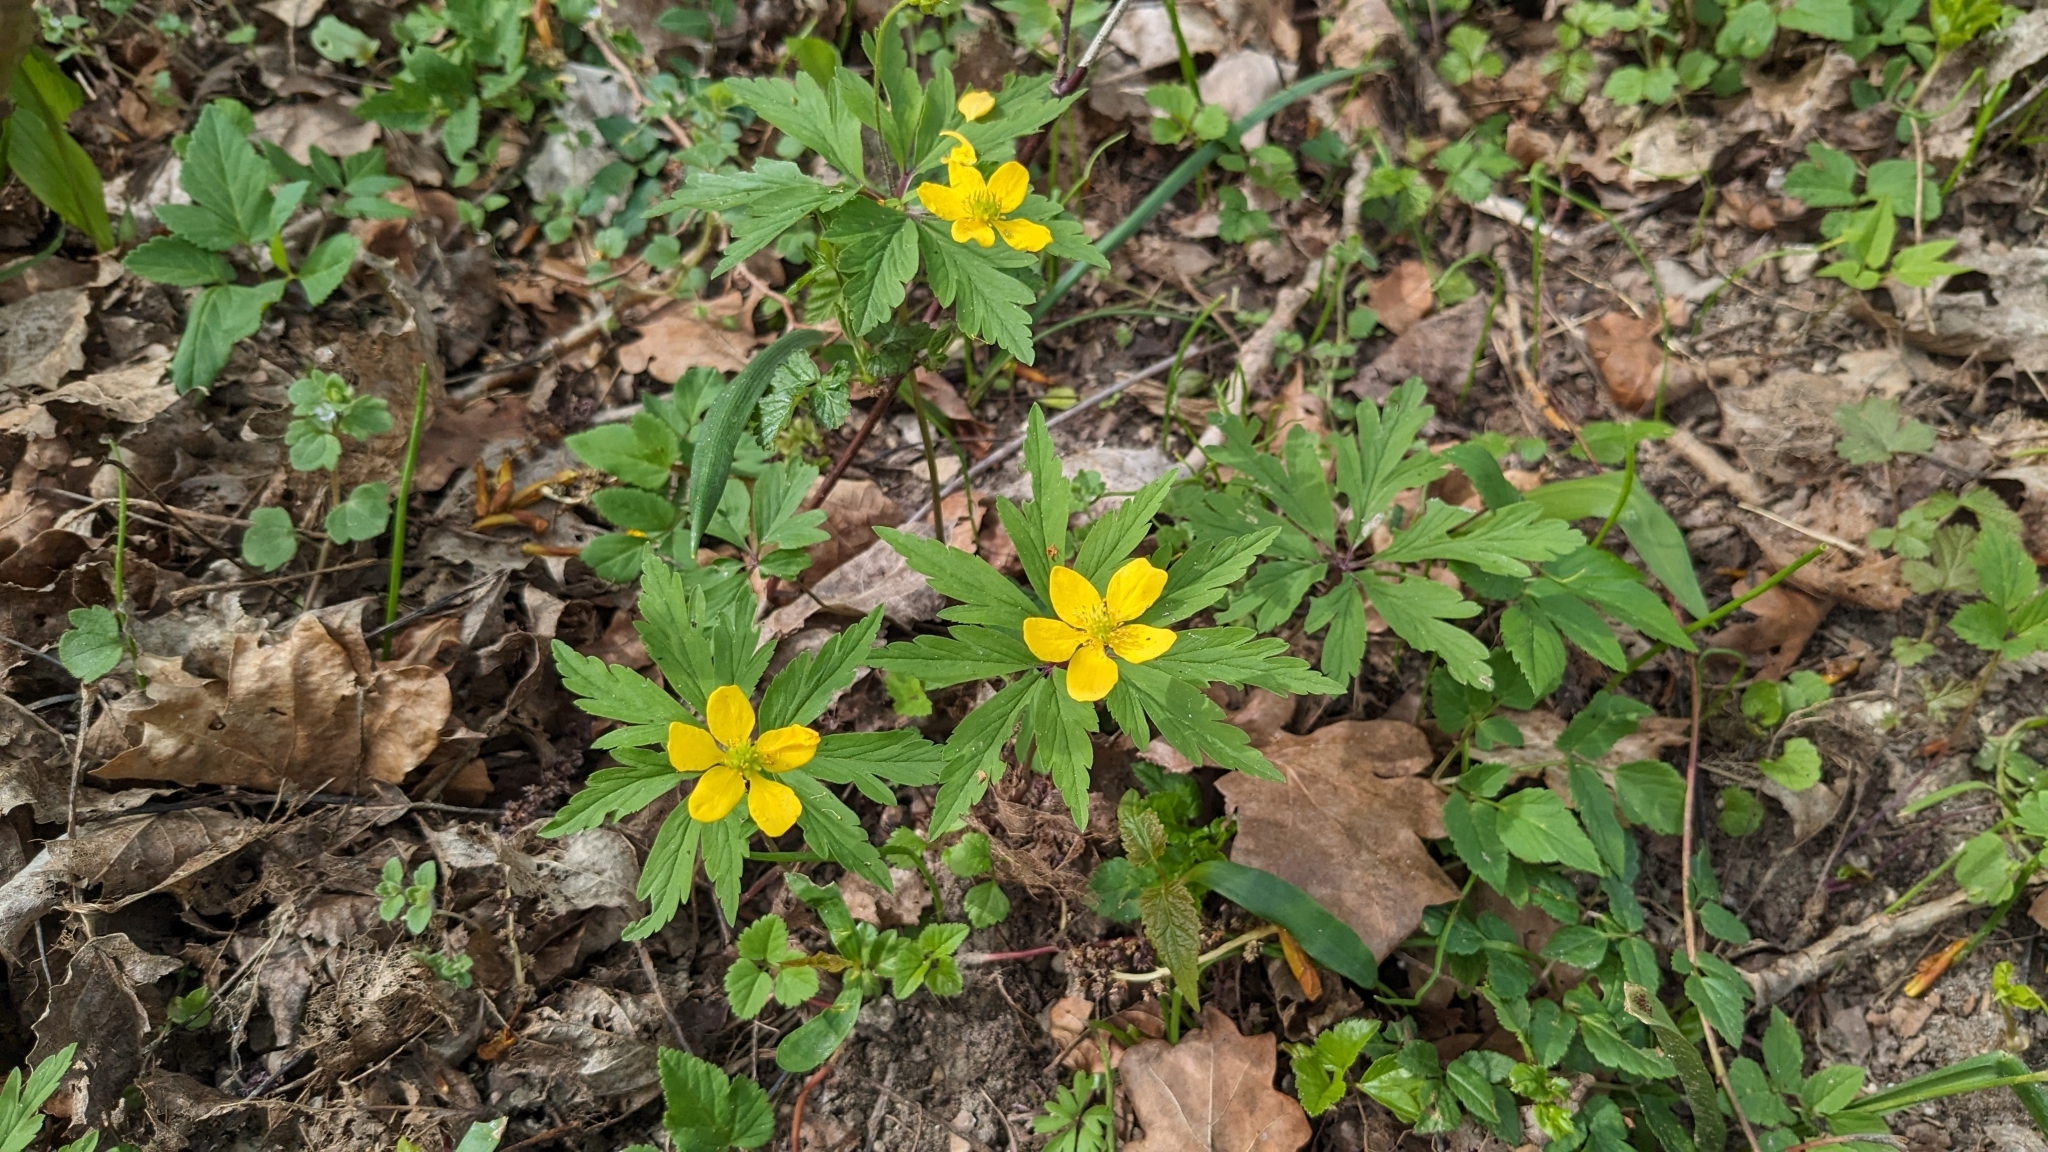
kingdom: Plantae
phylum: Tracheophyta
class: Magnoliopsida
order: Ranunculales
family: Ranunculaceae
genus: Anemone
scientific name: Anemone ranunculoides
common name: Yellow anemone
